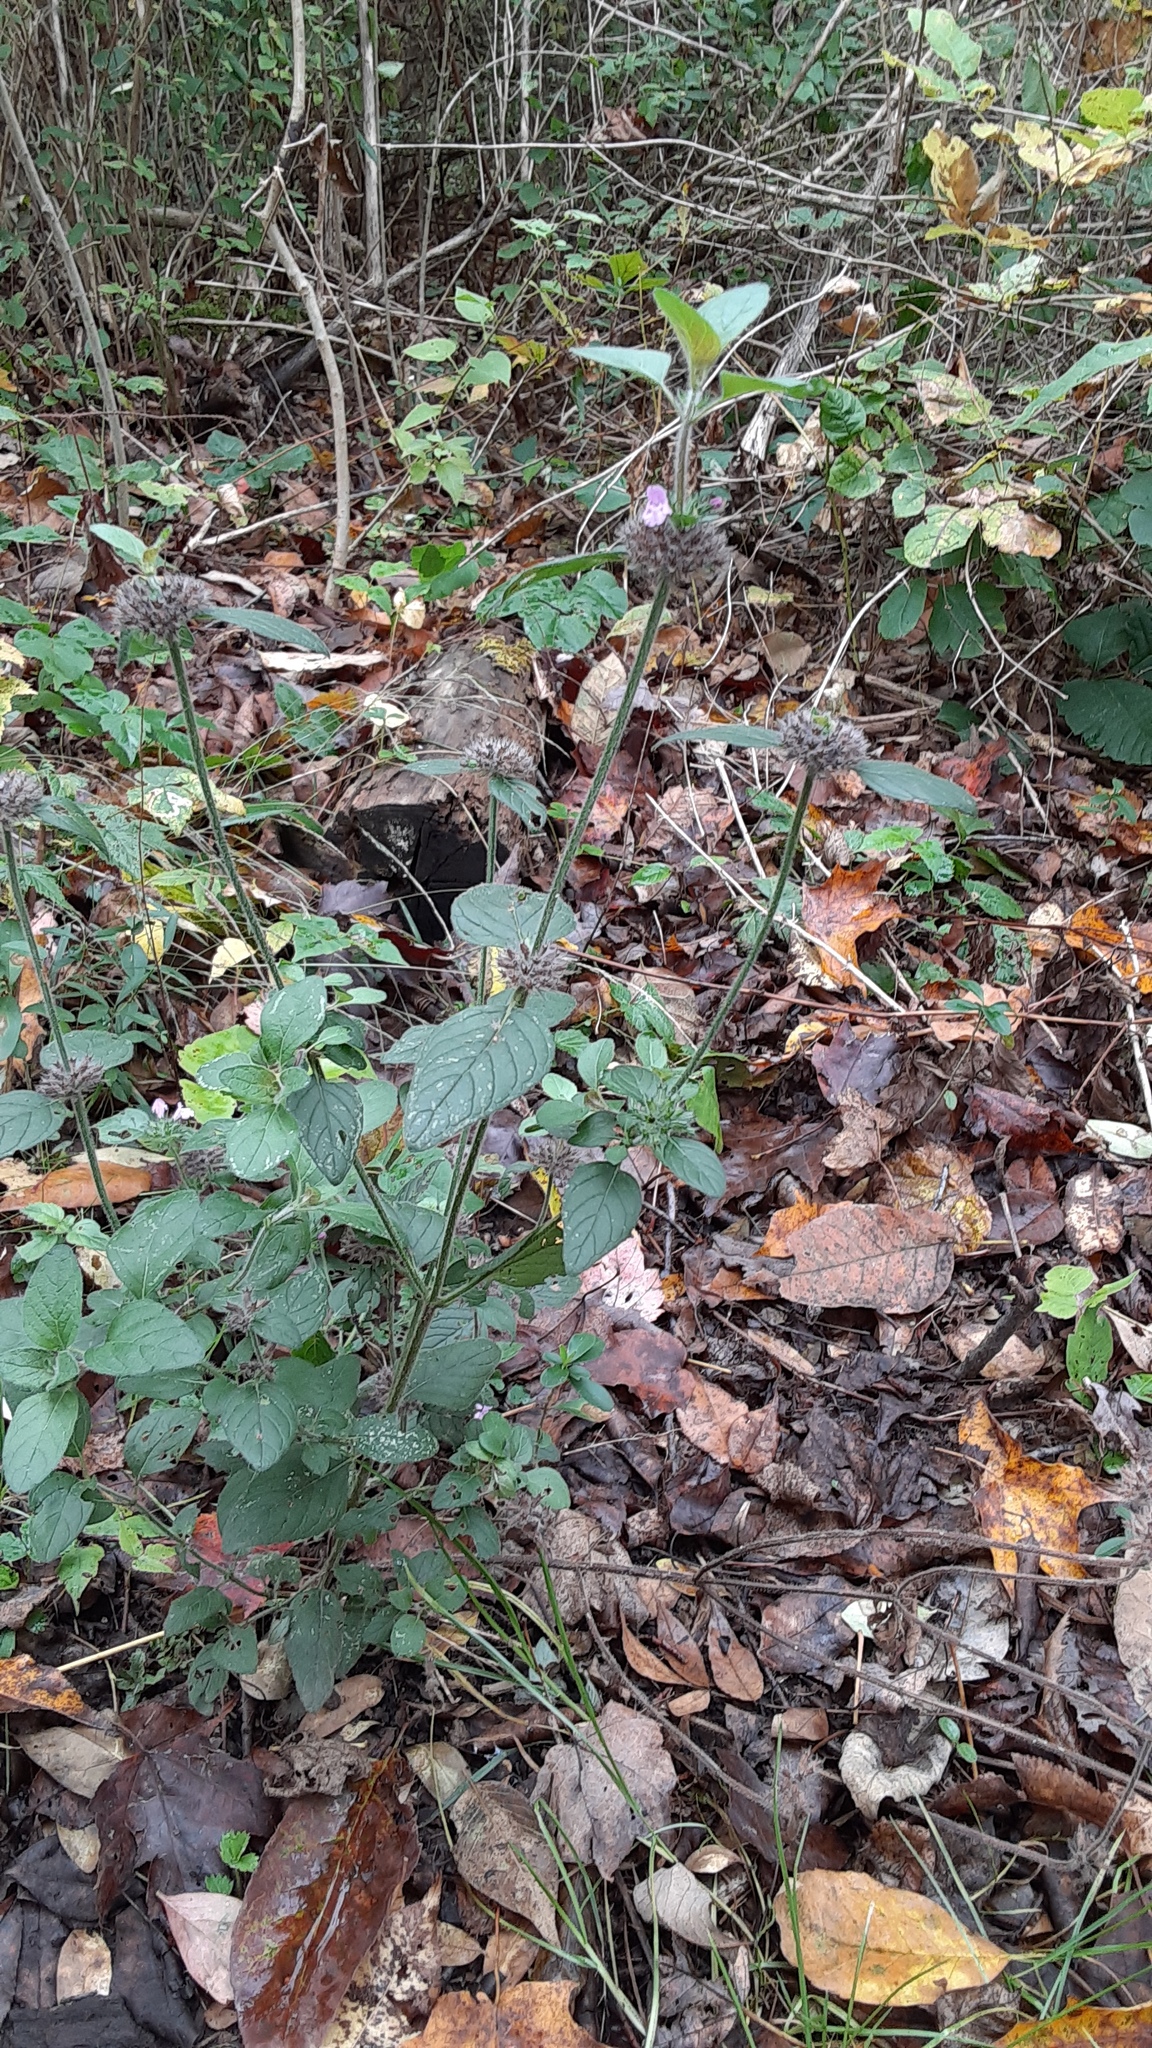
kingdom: Plantae
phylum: Tracheophyta
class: Magnoliopsida
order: Lamiales
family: Lamiaceae
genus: Clinopodium
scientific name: Clinopodium vulgare
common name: Wild basil
